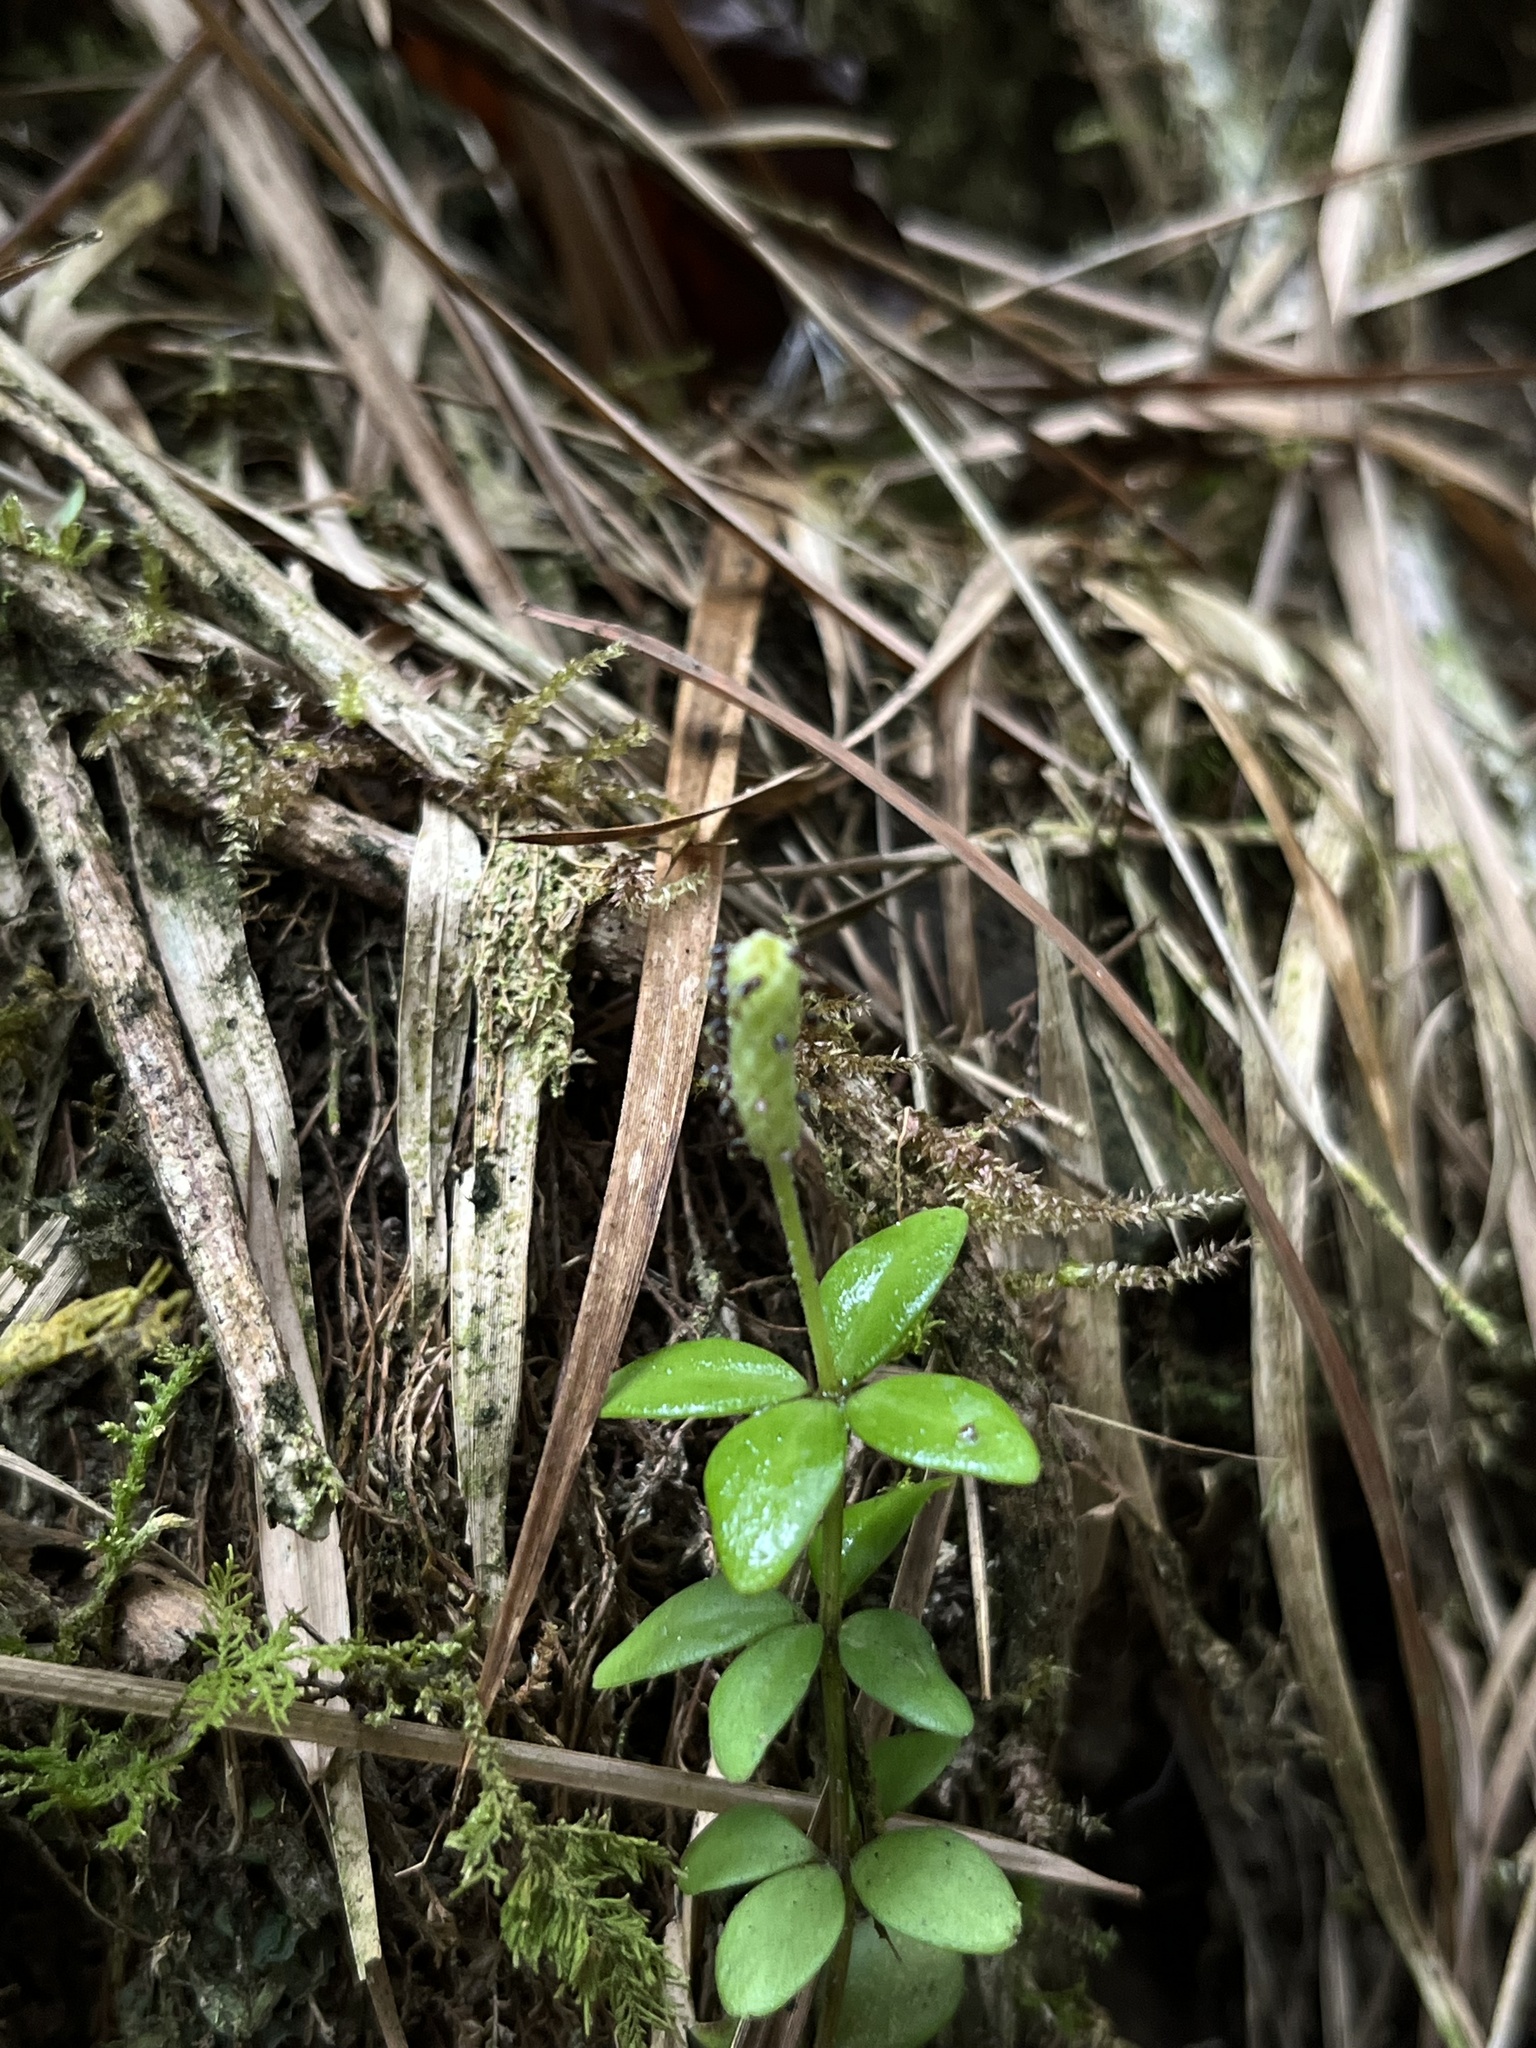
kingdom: Plantae
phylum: Tracheophyta
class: Magnoliopsida
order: Piperales
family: Piperaceae
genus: Peperomia
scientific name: Peperomia tetraphylla
